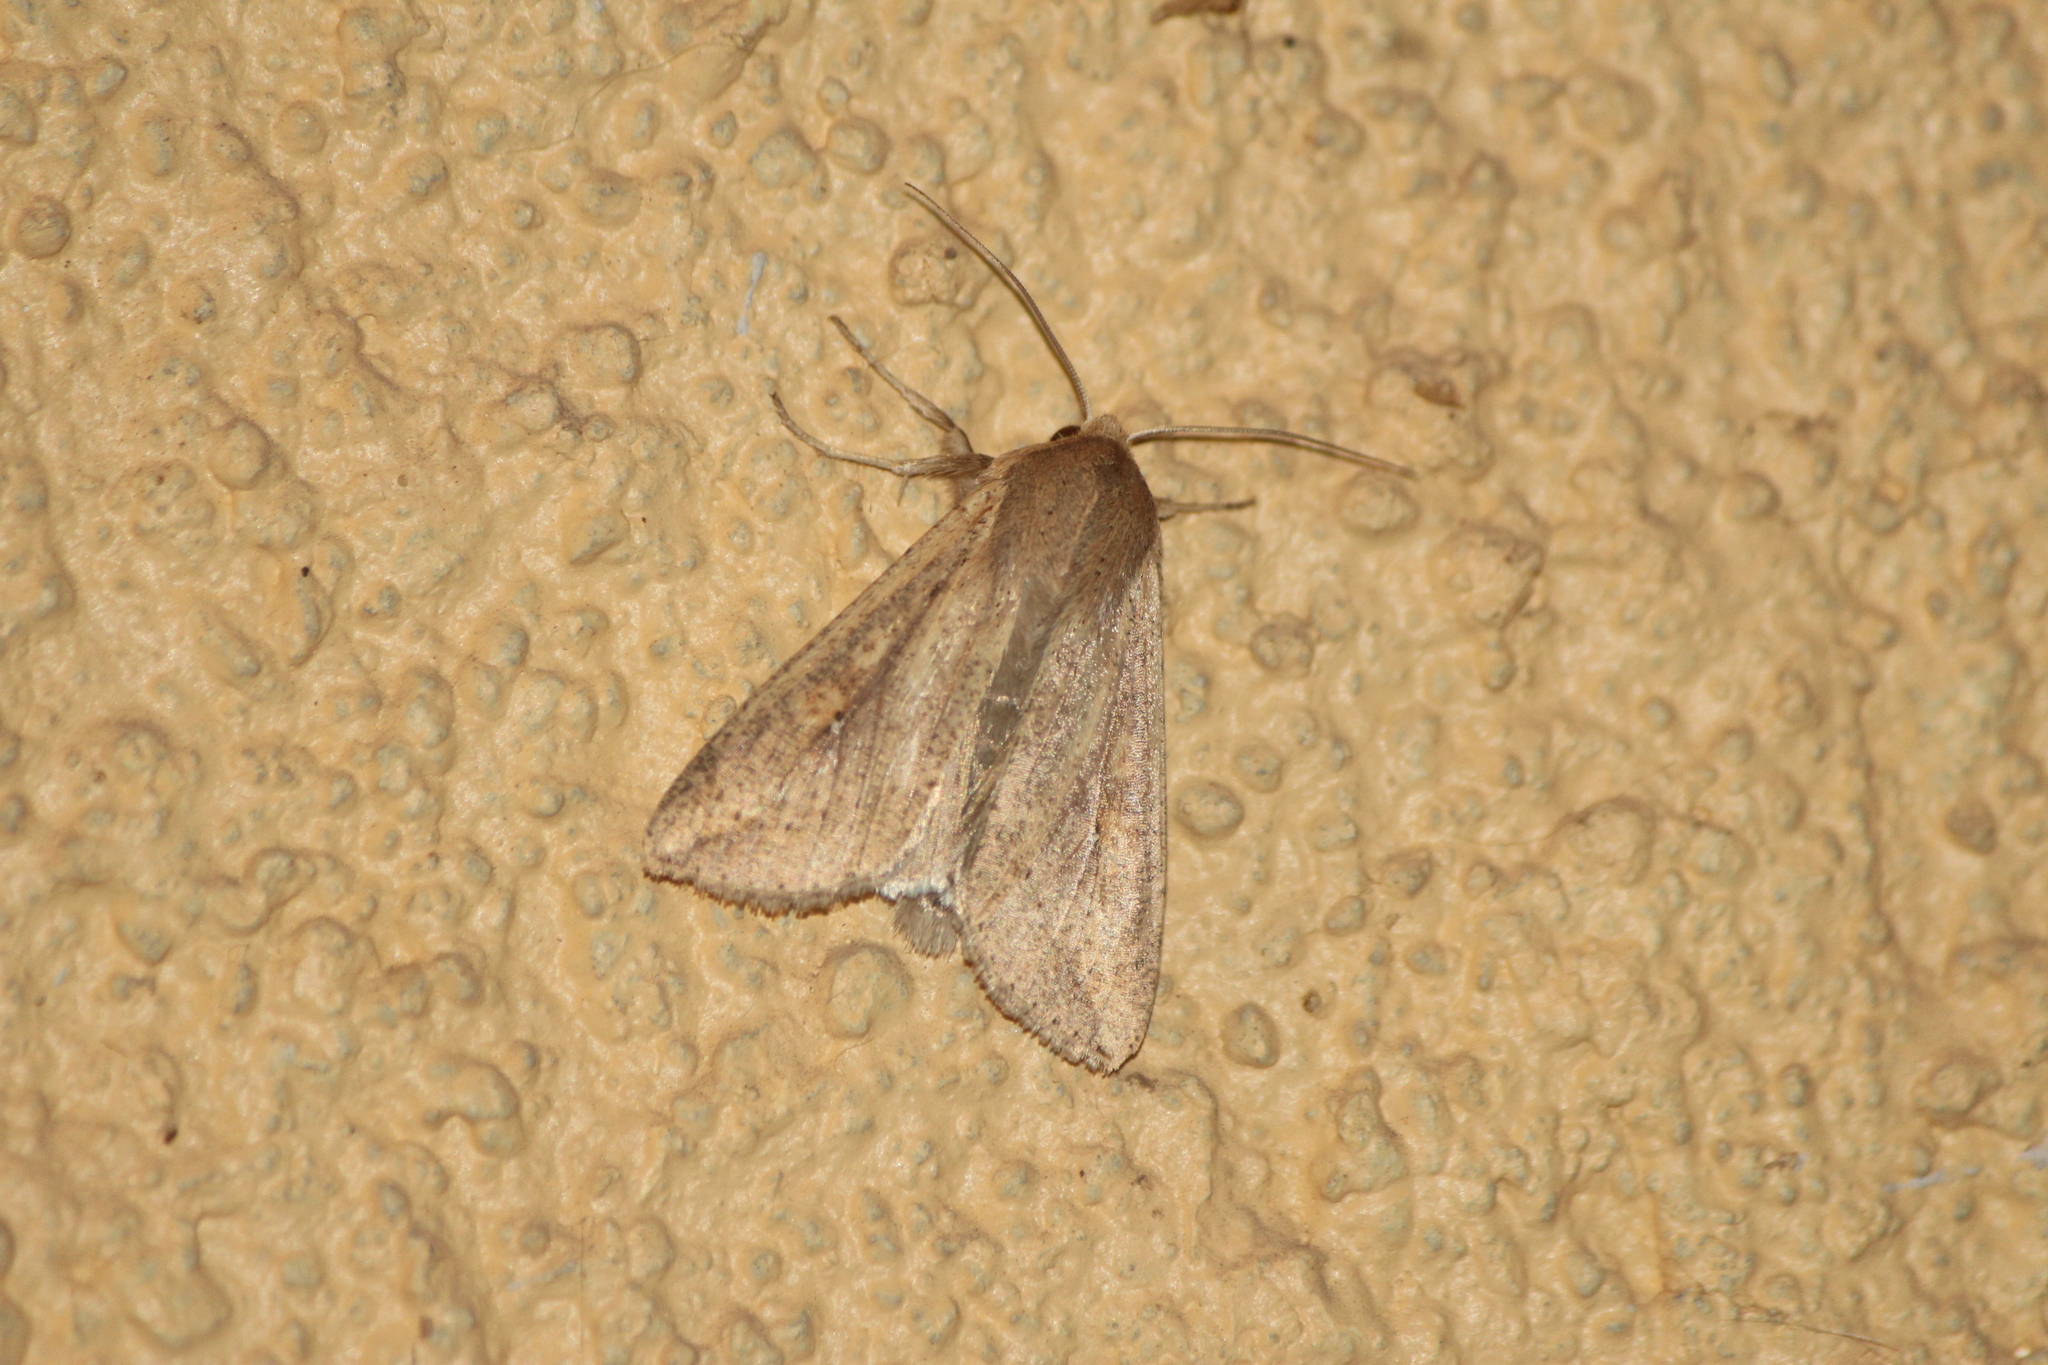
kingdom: Animalia
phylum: Arthropoda
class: Insecta
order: Lepidoptera
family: Noctuidae
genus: Mythimna
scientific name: Mythimna unipuncta
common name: White-speck
